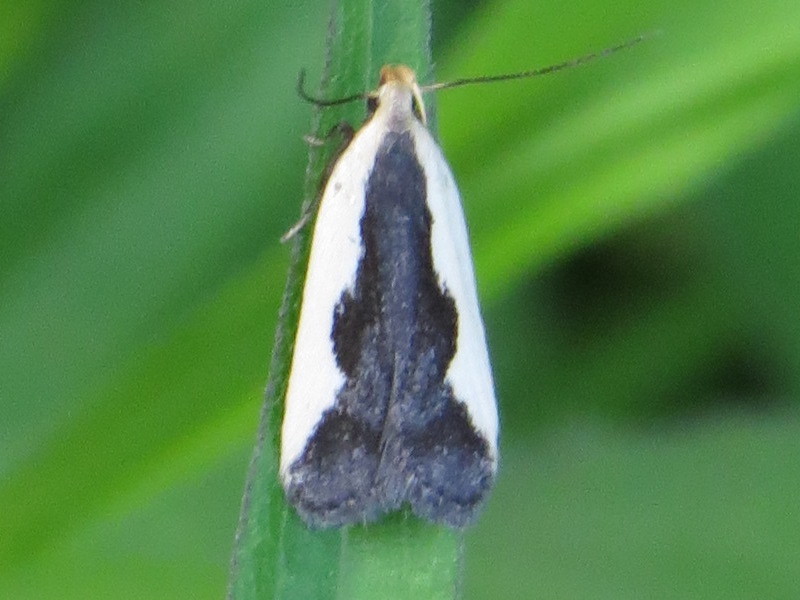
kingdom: Animalia
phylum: Arthropoda
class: Insecta
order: Lepidoptera
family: Gelechiidae
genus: Dichomeris
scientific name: Dichomeris inserrata
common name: Indented dichomeris moth
